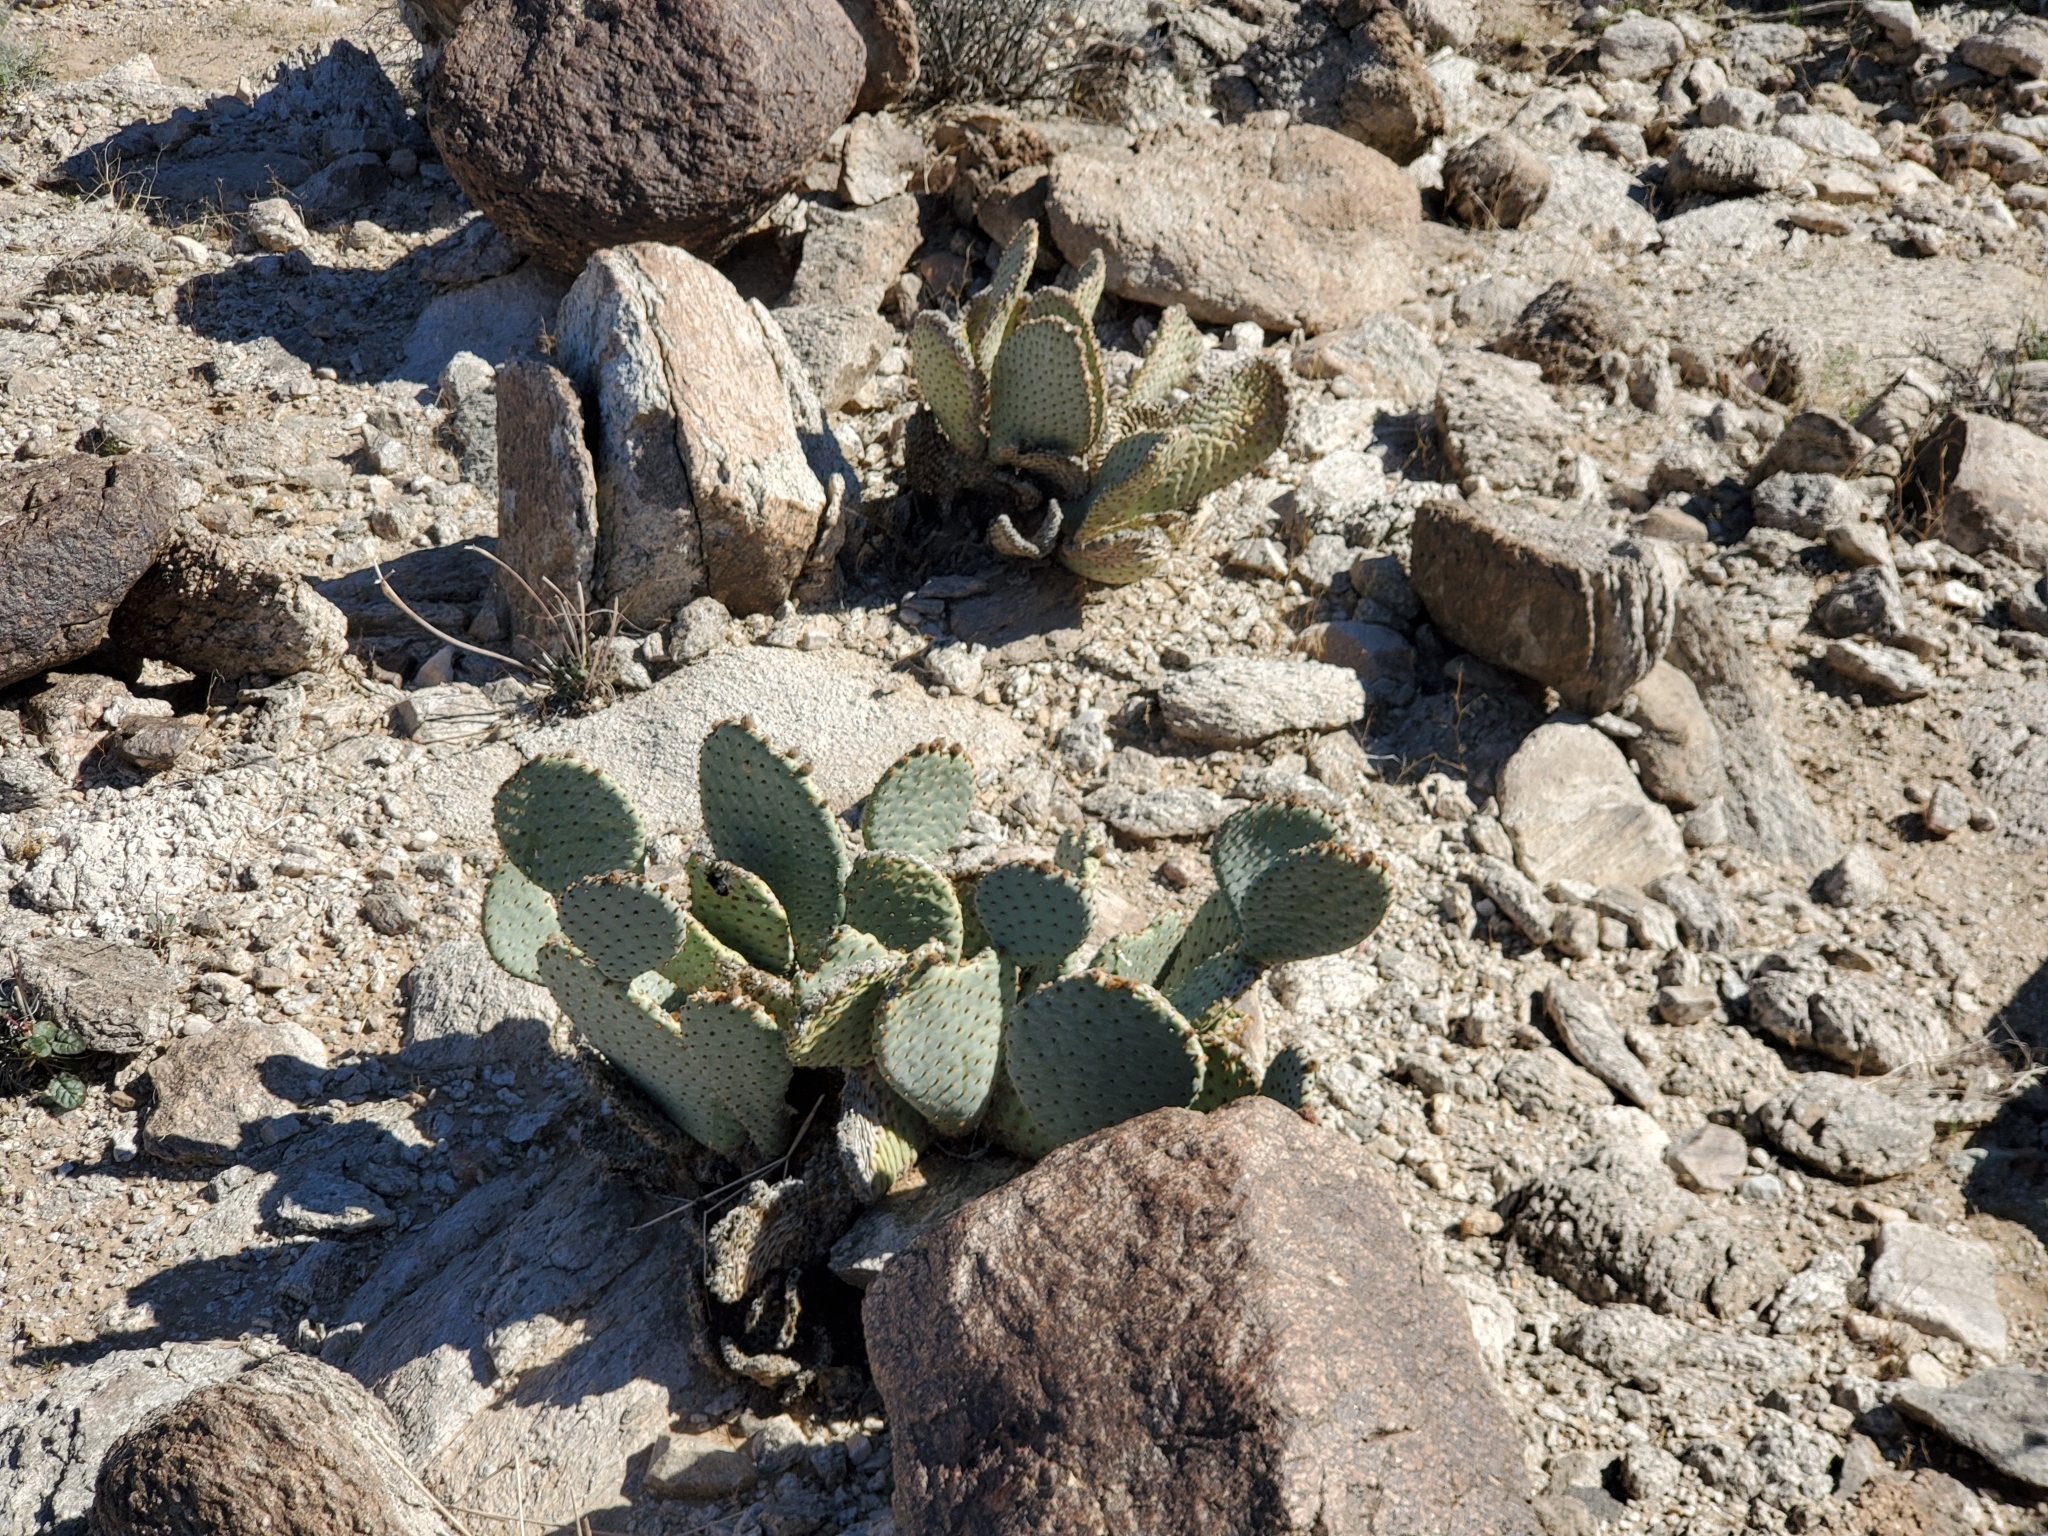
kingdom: Plantae
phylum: Tracheophyta
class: Magnoliopsida
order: Caryophyllales
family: Cactaceae
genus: Opuntia
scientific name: Opuntia basilaris
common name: Beavertail prickly-pear
